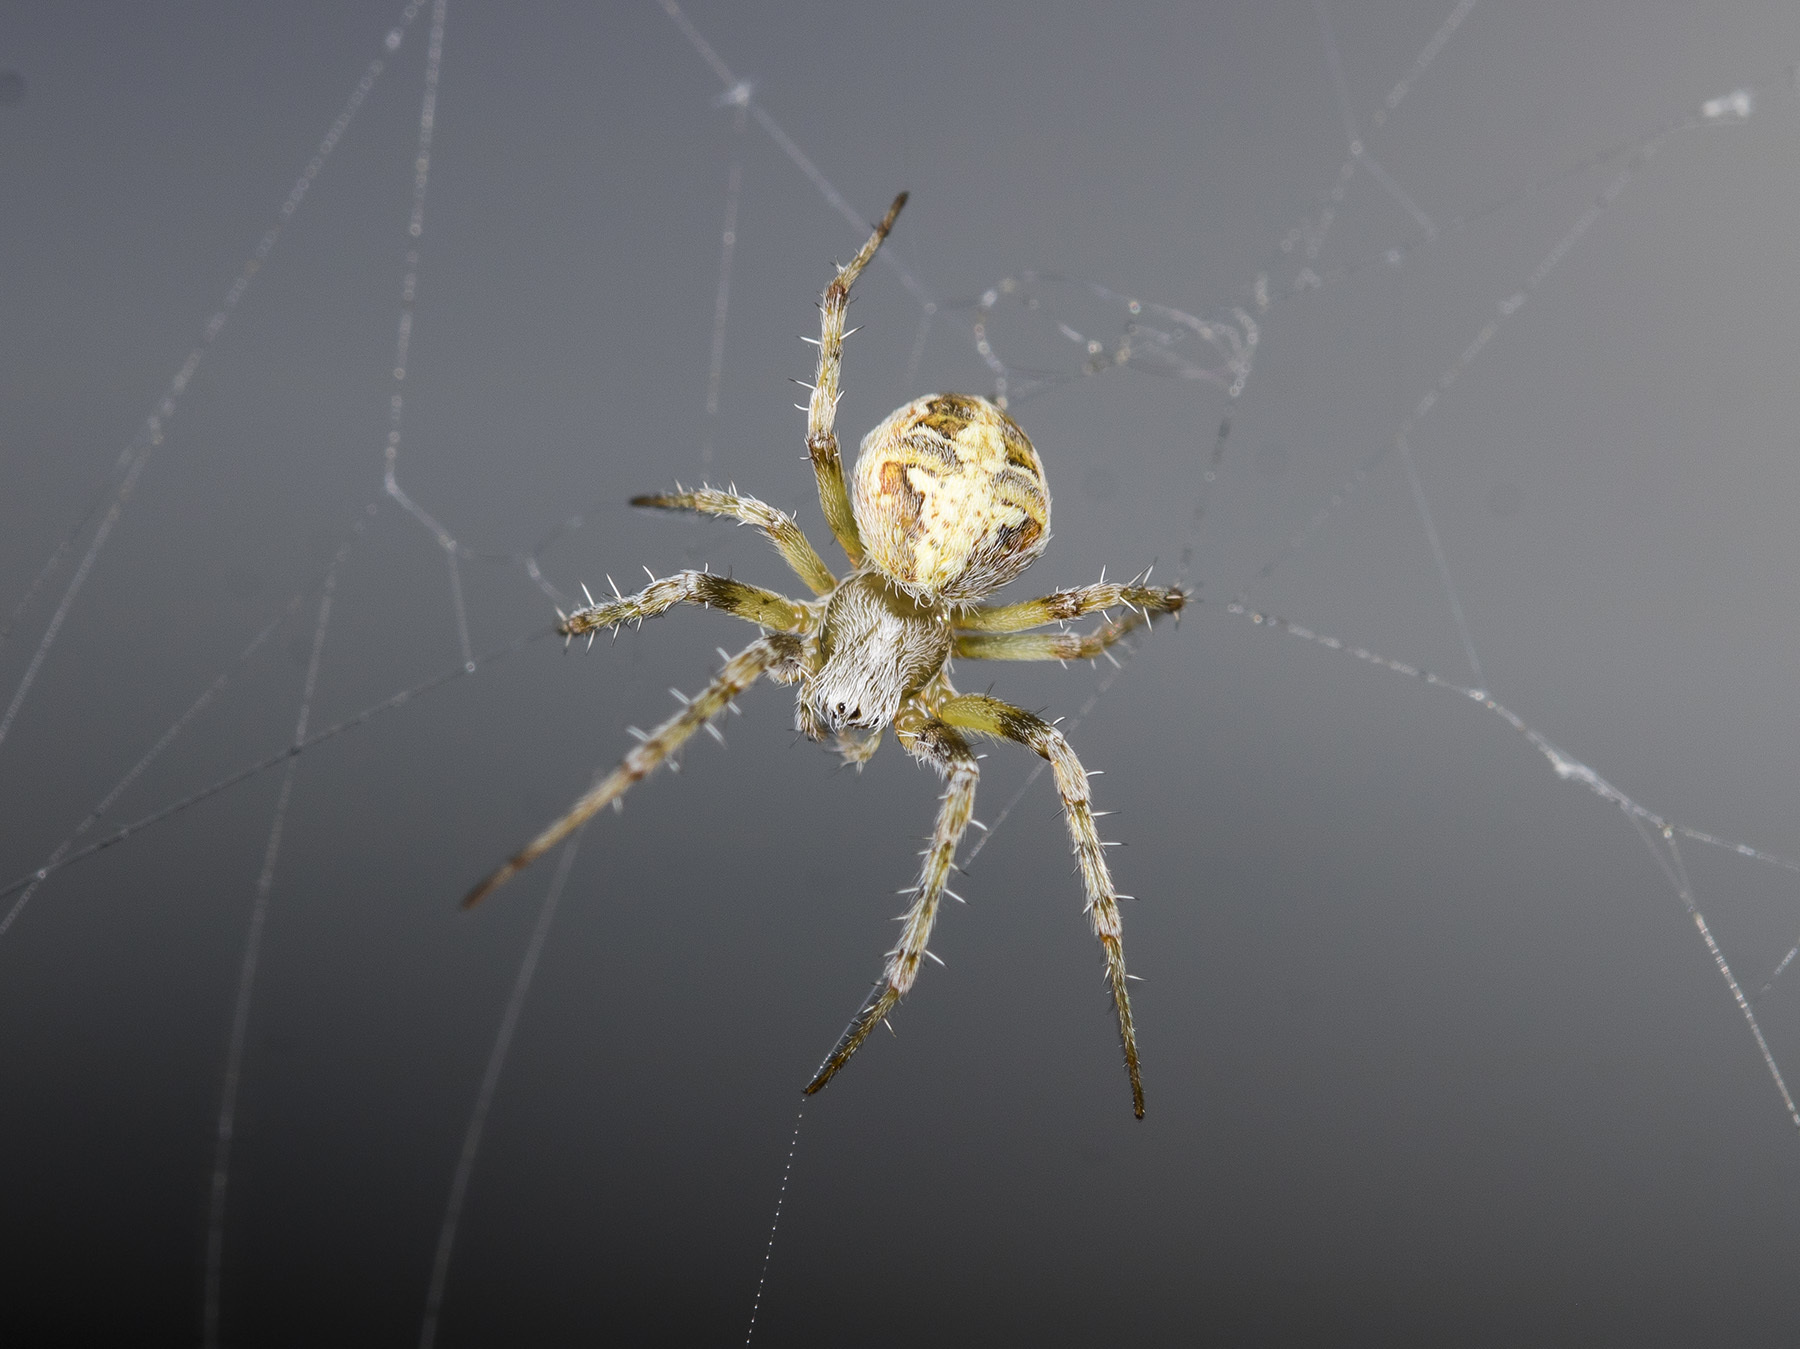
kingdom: Animalia
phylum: Arthropoda
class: Arachnida
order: Araneae
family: Araneidae
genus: Araneus
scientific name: Araneus pallasi
